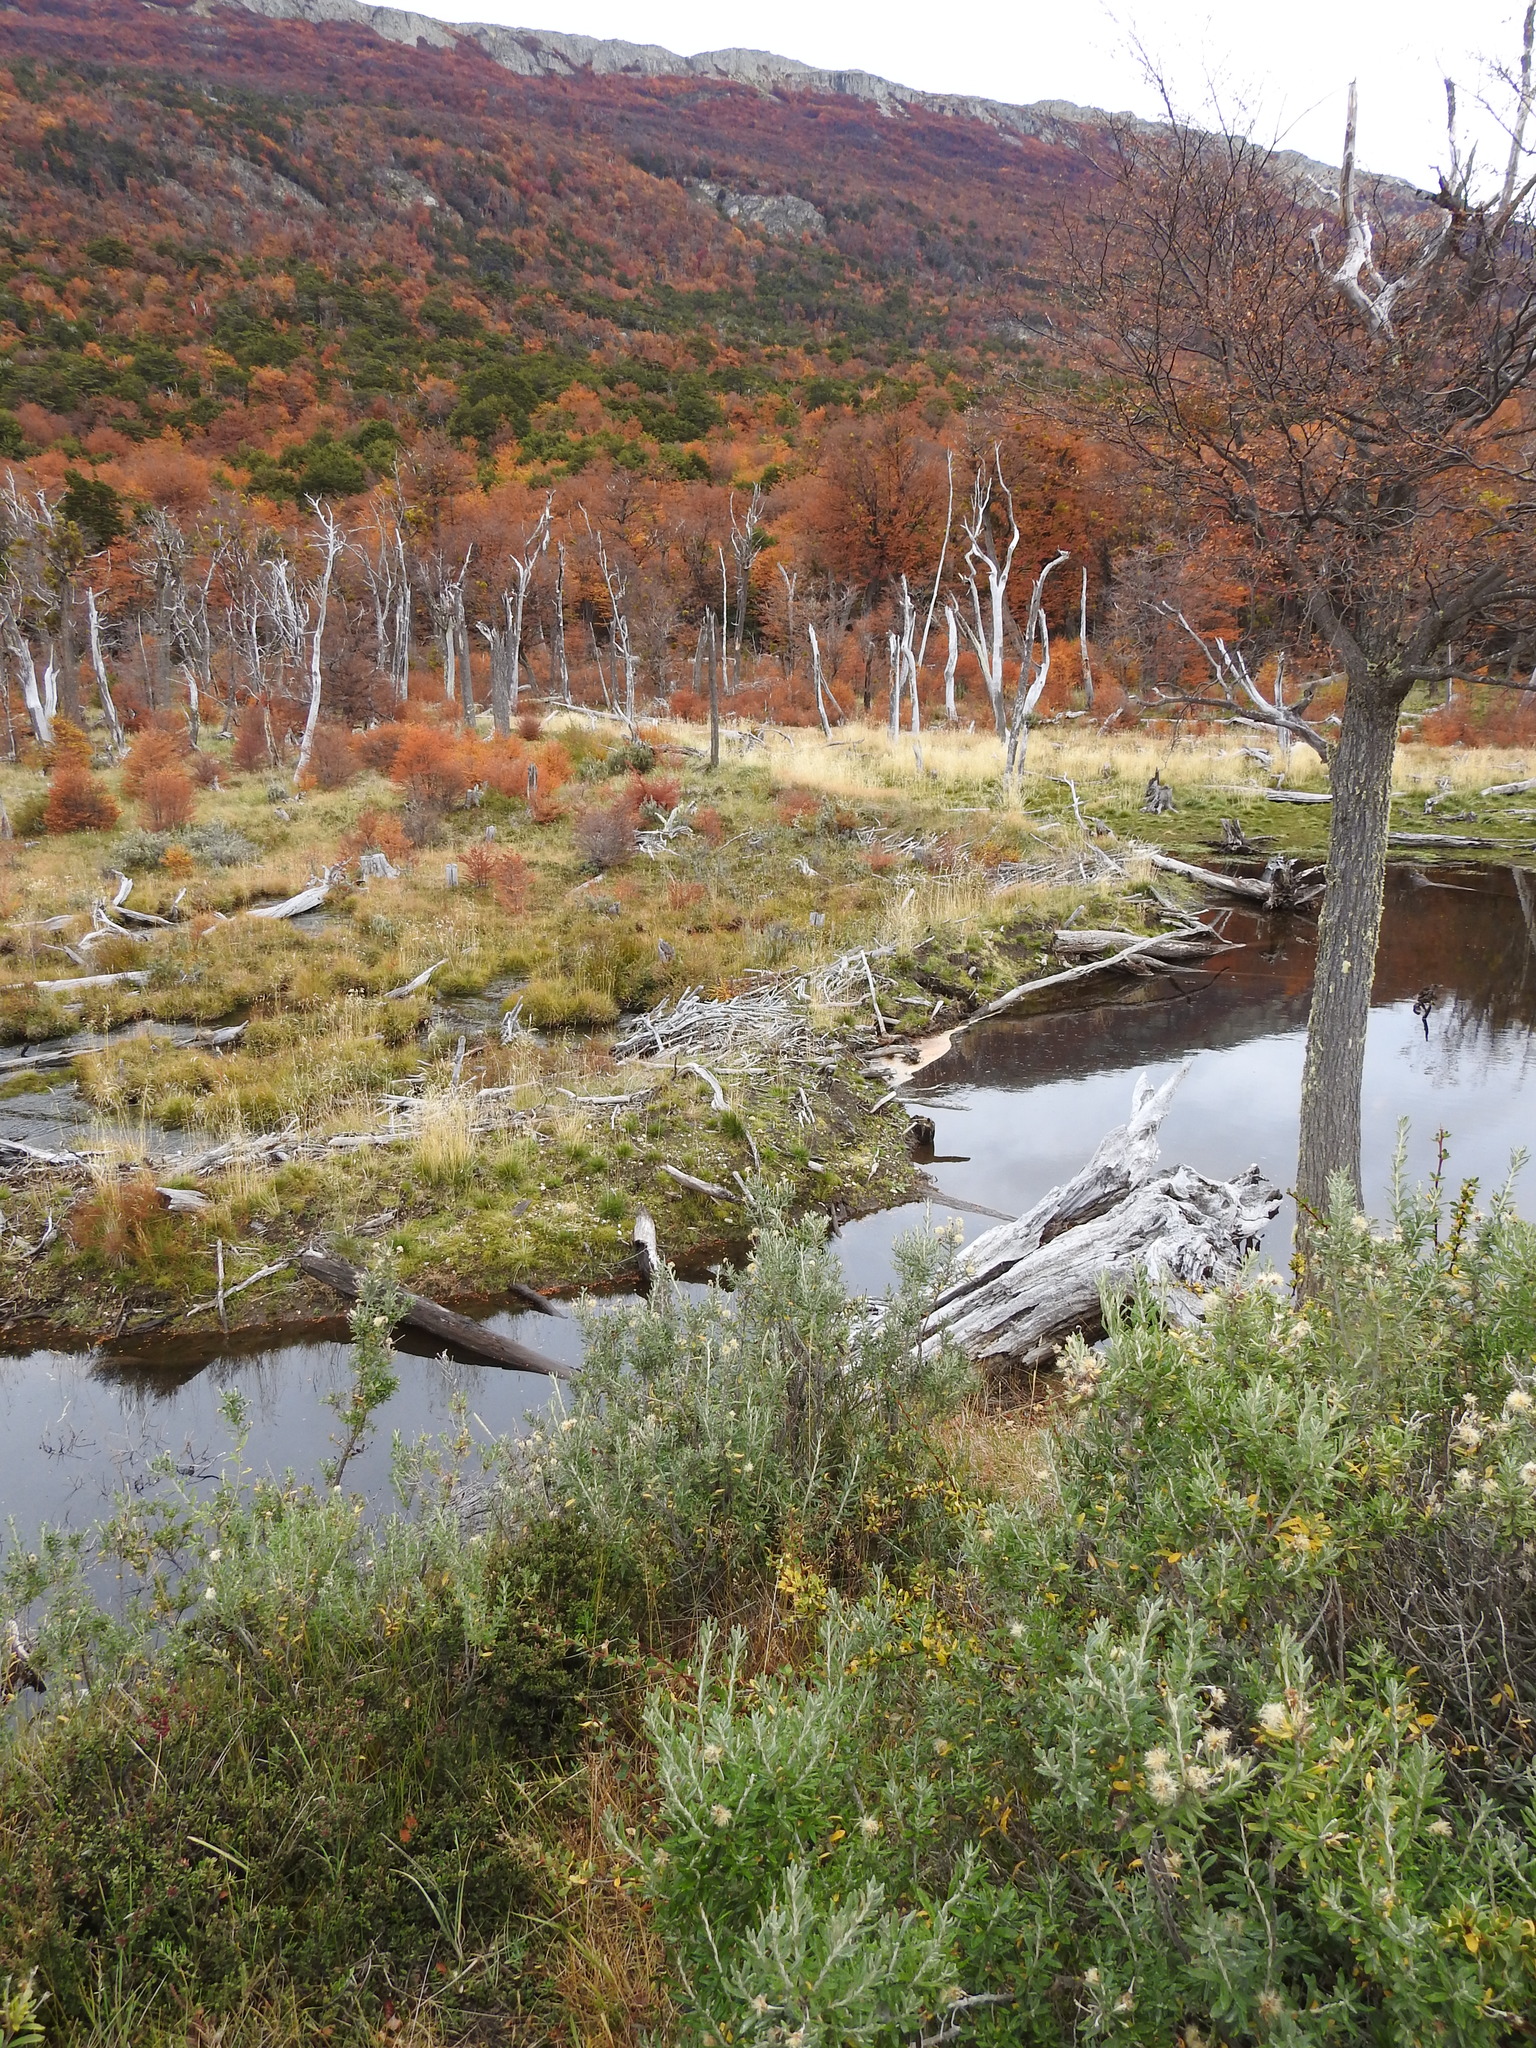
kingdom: Animalia
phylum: Chordata
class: Mammalia
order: Rodentia
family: Castoridae
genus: Castor
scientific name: Castor canadensis
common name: American beaver
